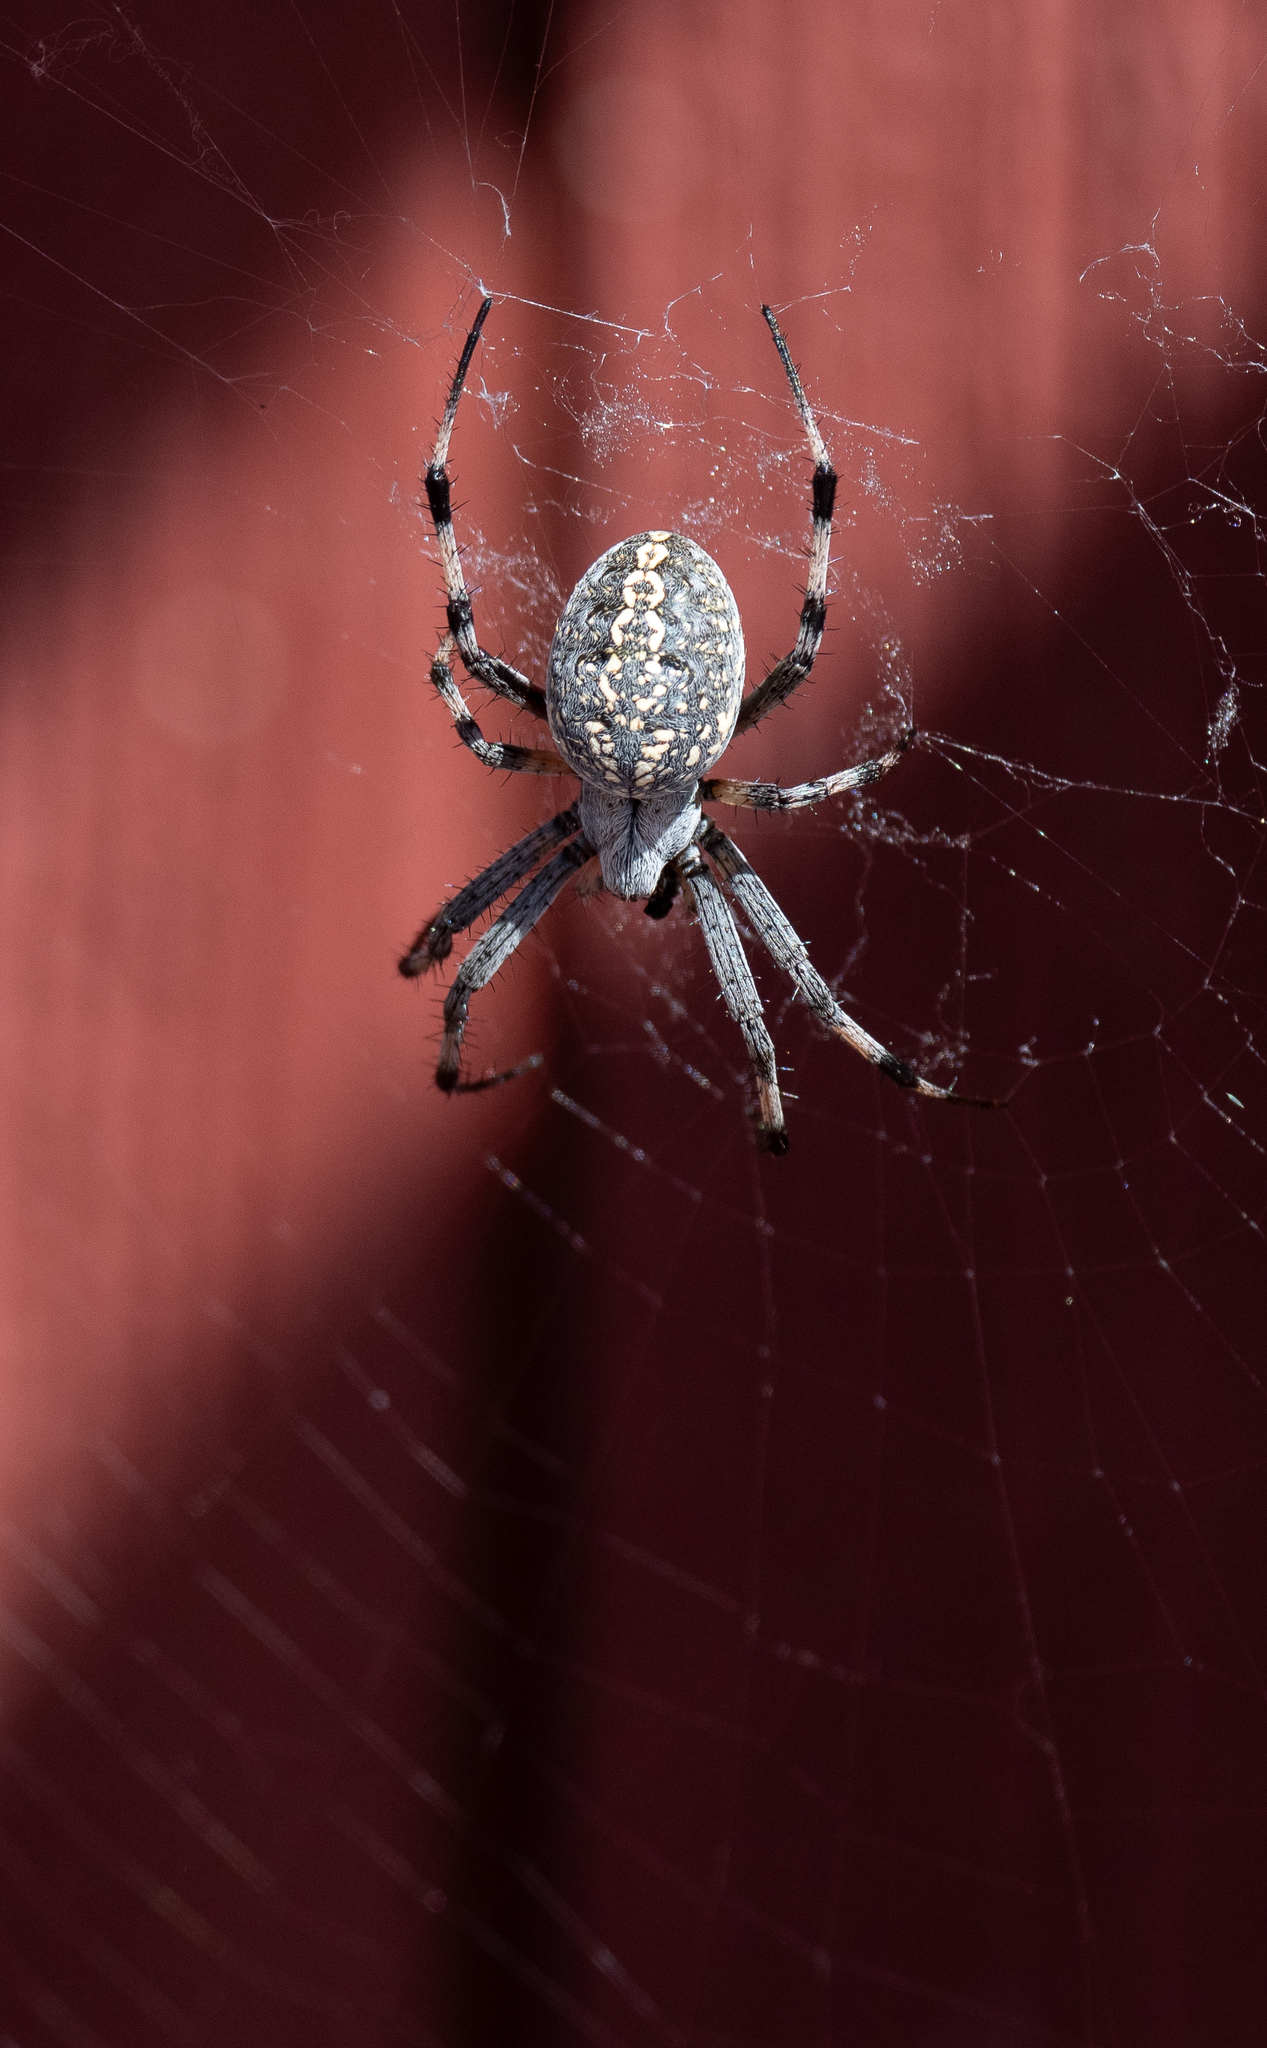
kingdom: Animalia
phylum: Arthropoda
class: Arachnida
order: Araneae
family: Araneidae
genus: Neoscona
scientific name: Neoscona oaxacensis
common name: Orb weavers
